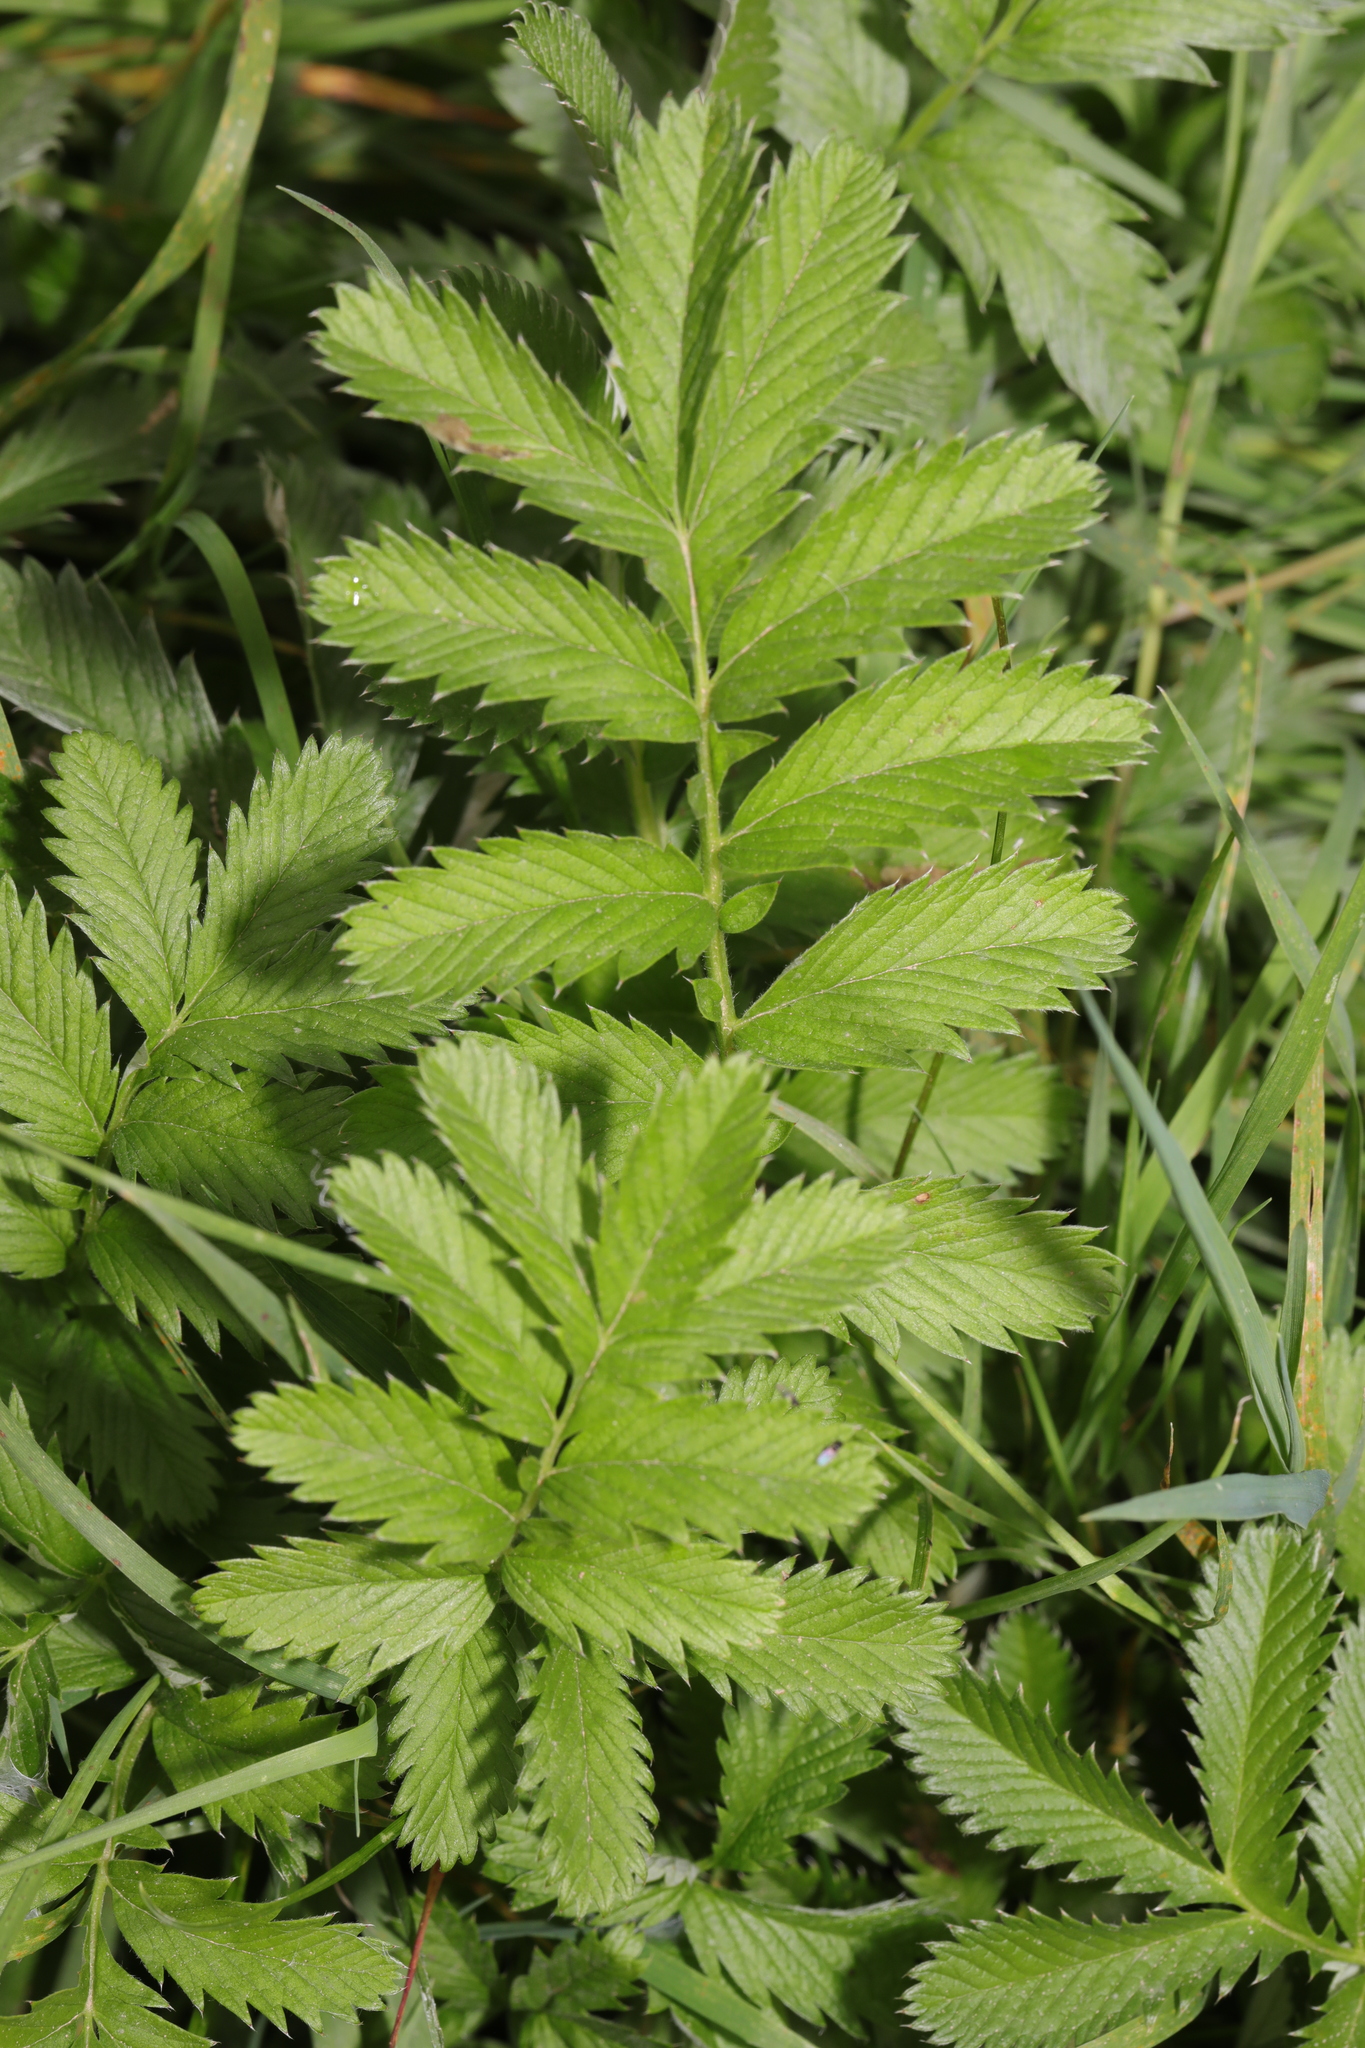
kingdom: Plantae
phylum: Tracheophyta
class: Magnoliopsida
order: Rosales
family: Rosaceae
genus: Argentina
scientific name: Argentina anserina
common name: Common silverweed
